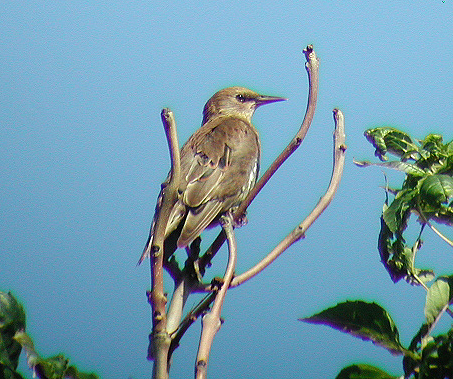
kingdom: Animalia
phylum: Chordata
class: Aves
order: Passeriformes
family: Sturnidae
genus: Sturnus
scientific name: Sturnus vulgaris
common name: Common starling
